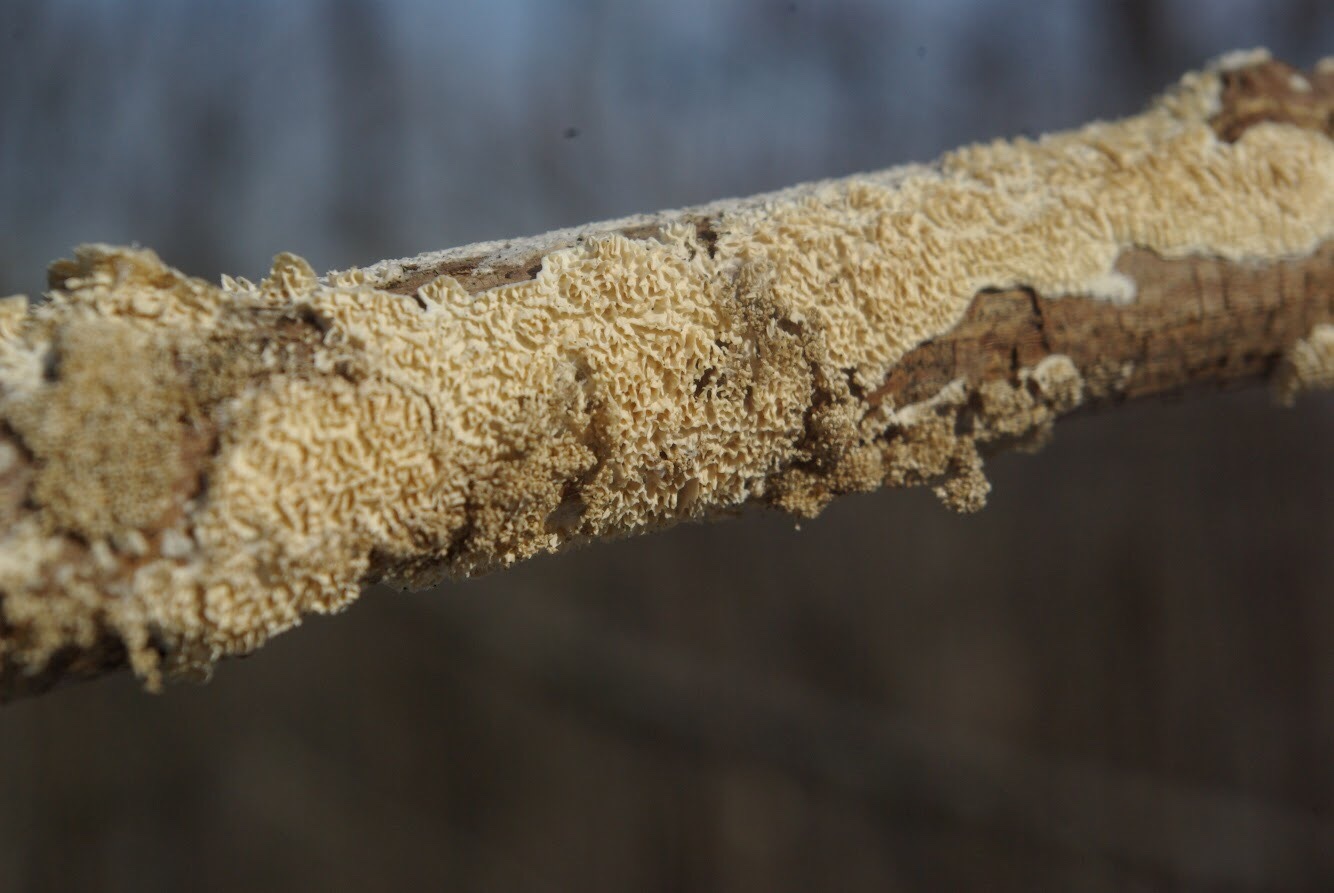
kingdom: Fungi
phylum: Basidiomycota
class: Agaricomycetes
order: Polyporales
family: Irpicaceae
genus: Irpex
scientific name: Irpex lacteus
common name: Milk-white toothed polypore
